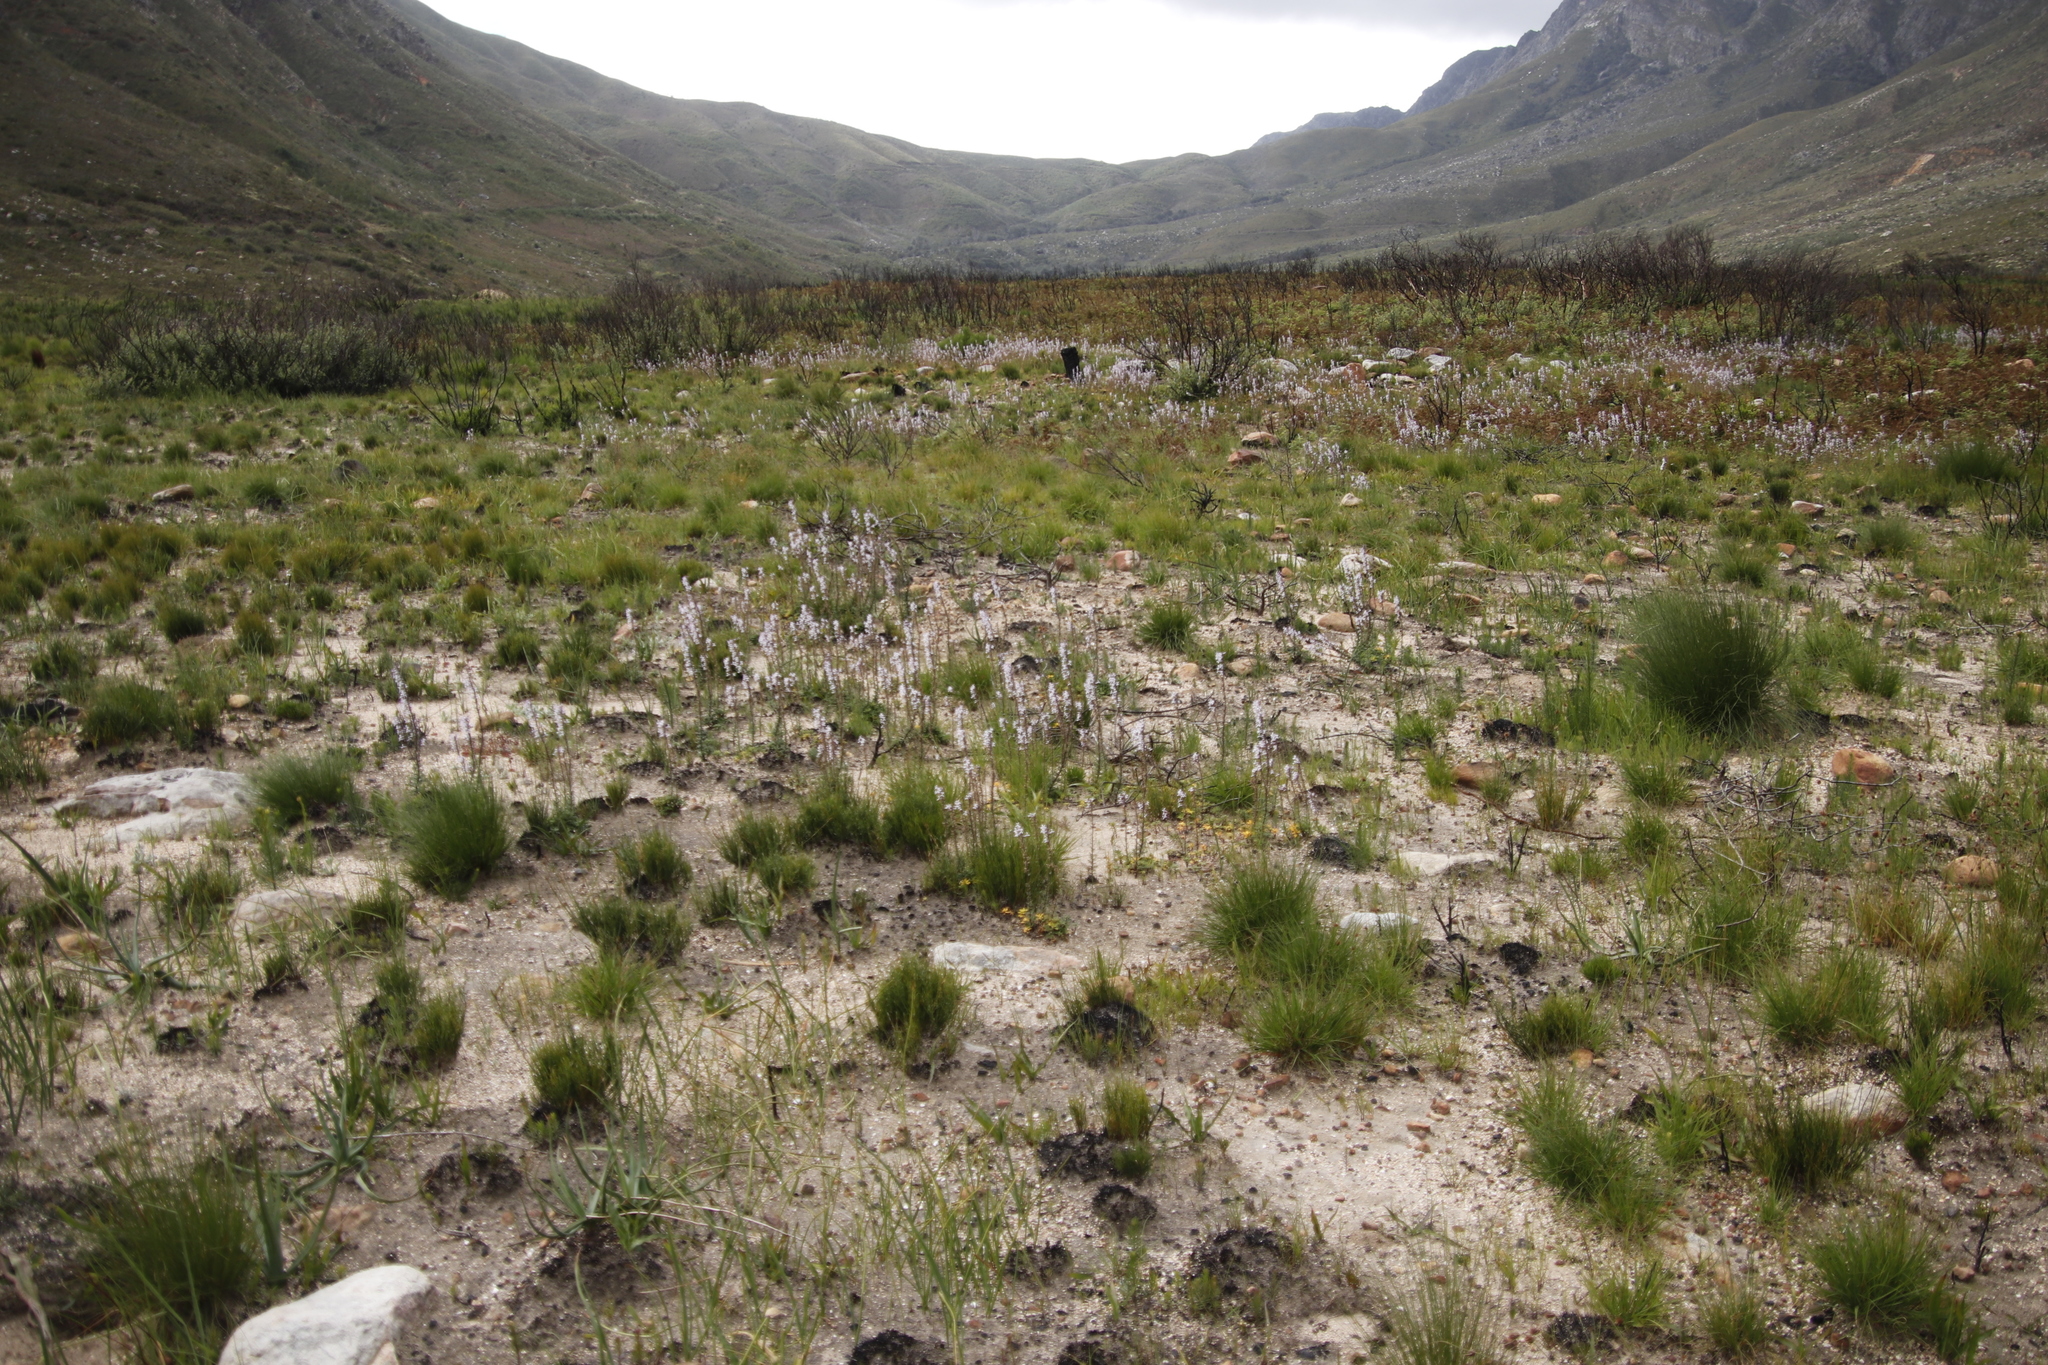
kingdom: Plantae
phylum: Tracheophyta
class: Magnoliopsida
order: Asterales
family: Campanulaceae
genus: Cyphia
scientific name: Cyphia bulbosa
